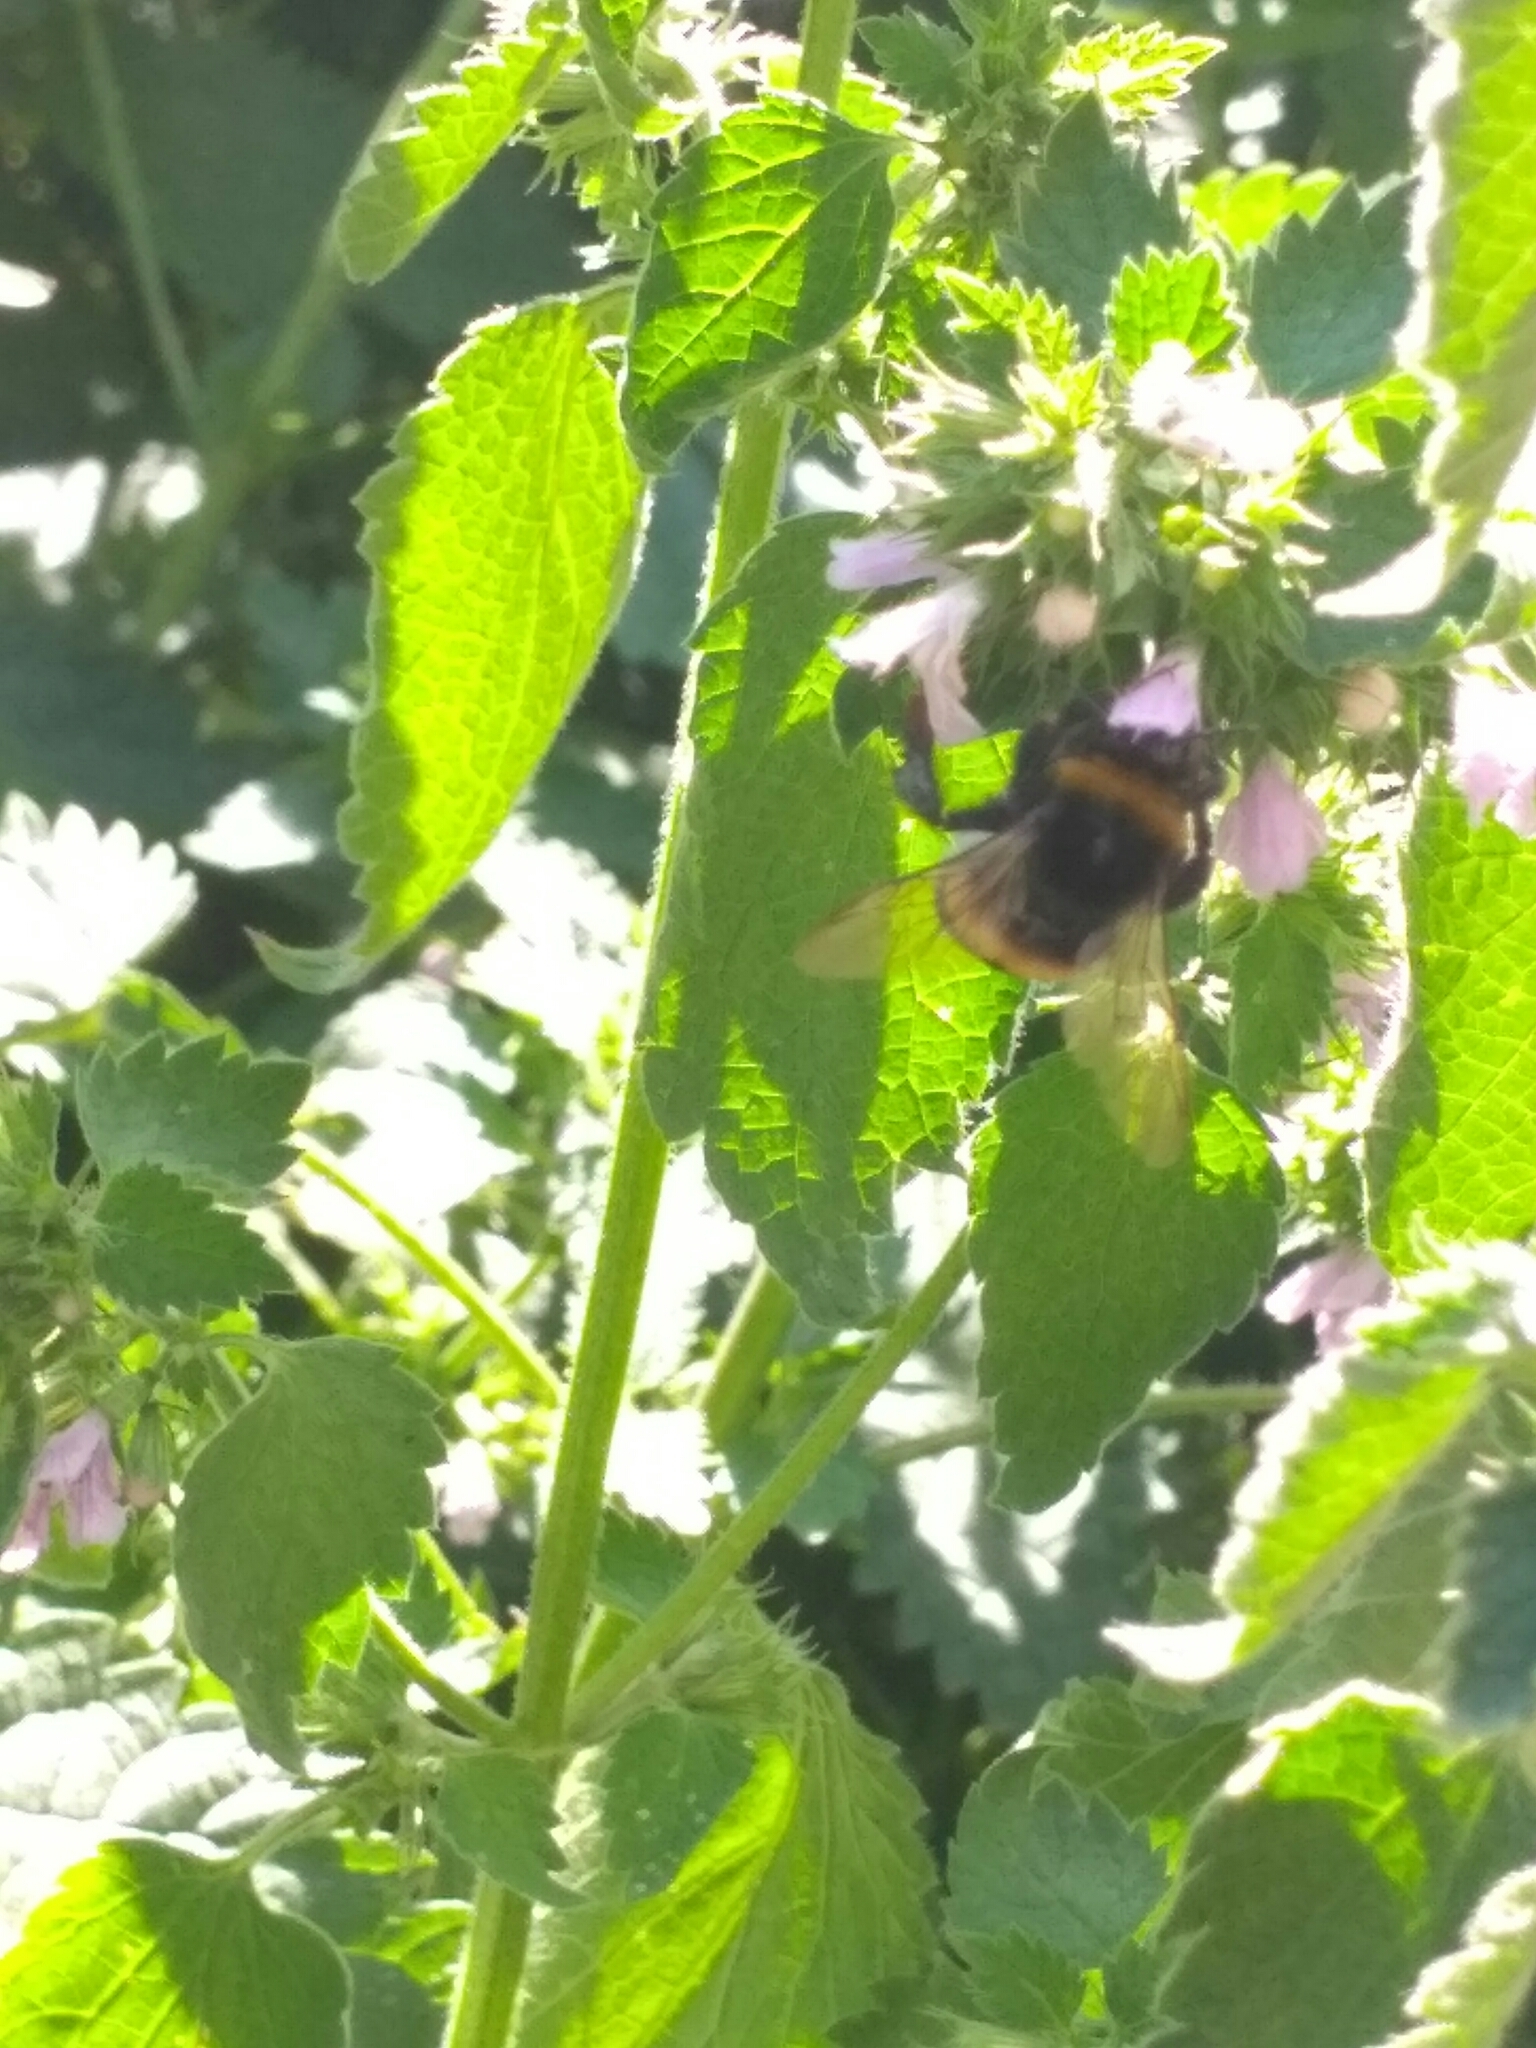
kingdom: Animalia
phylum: Arthropoda
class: Insecta
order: Hymenoptera
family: Apidae
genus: Bombus
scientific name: Bombus
